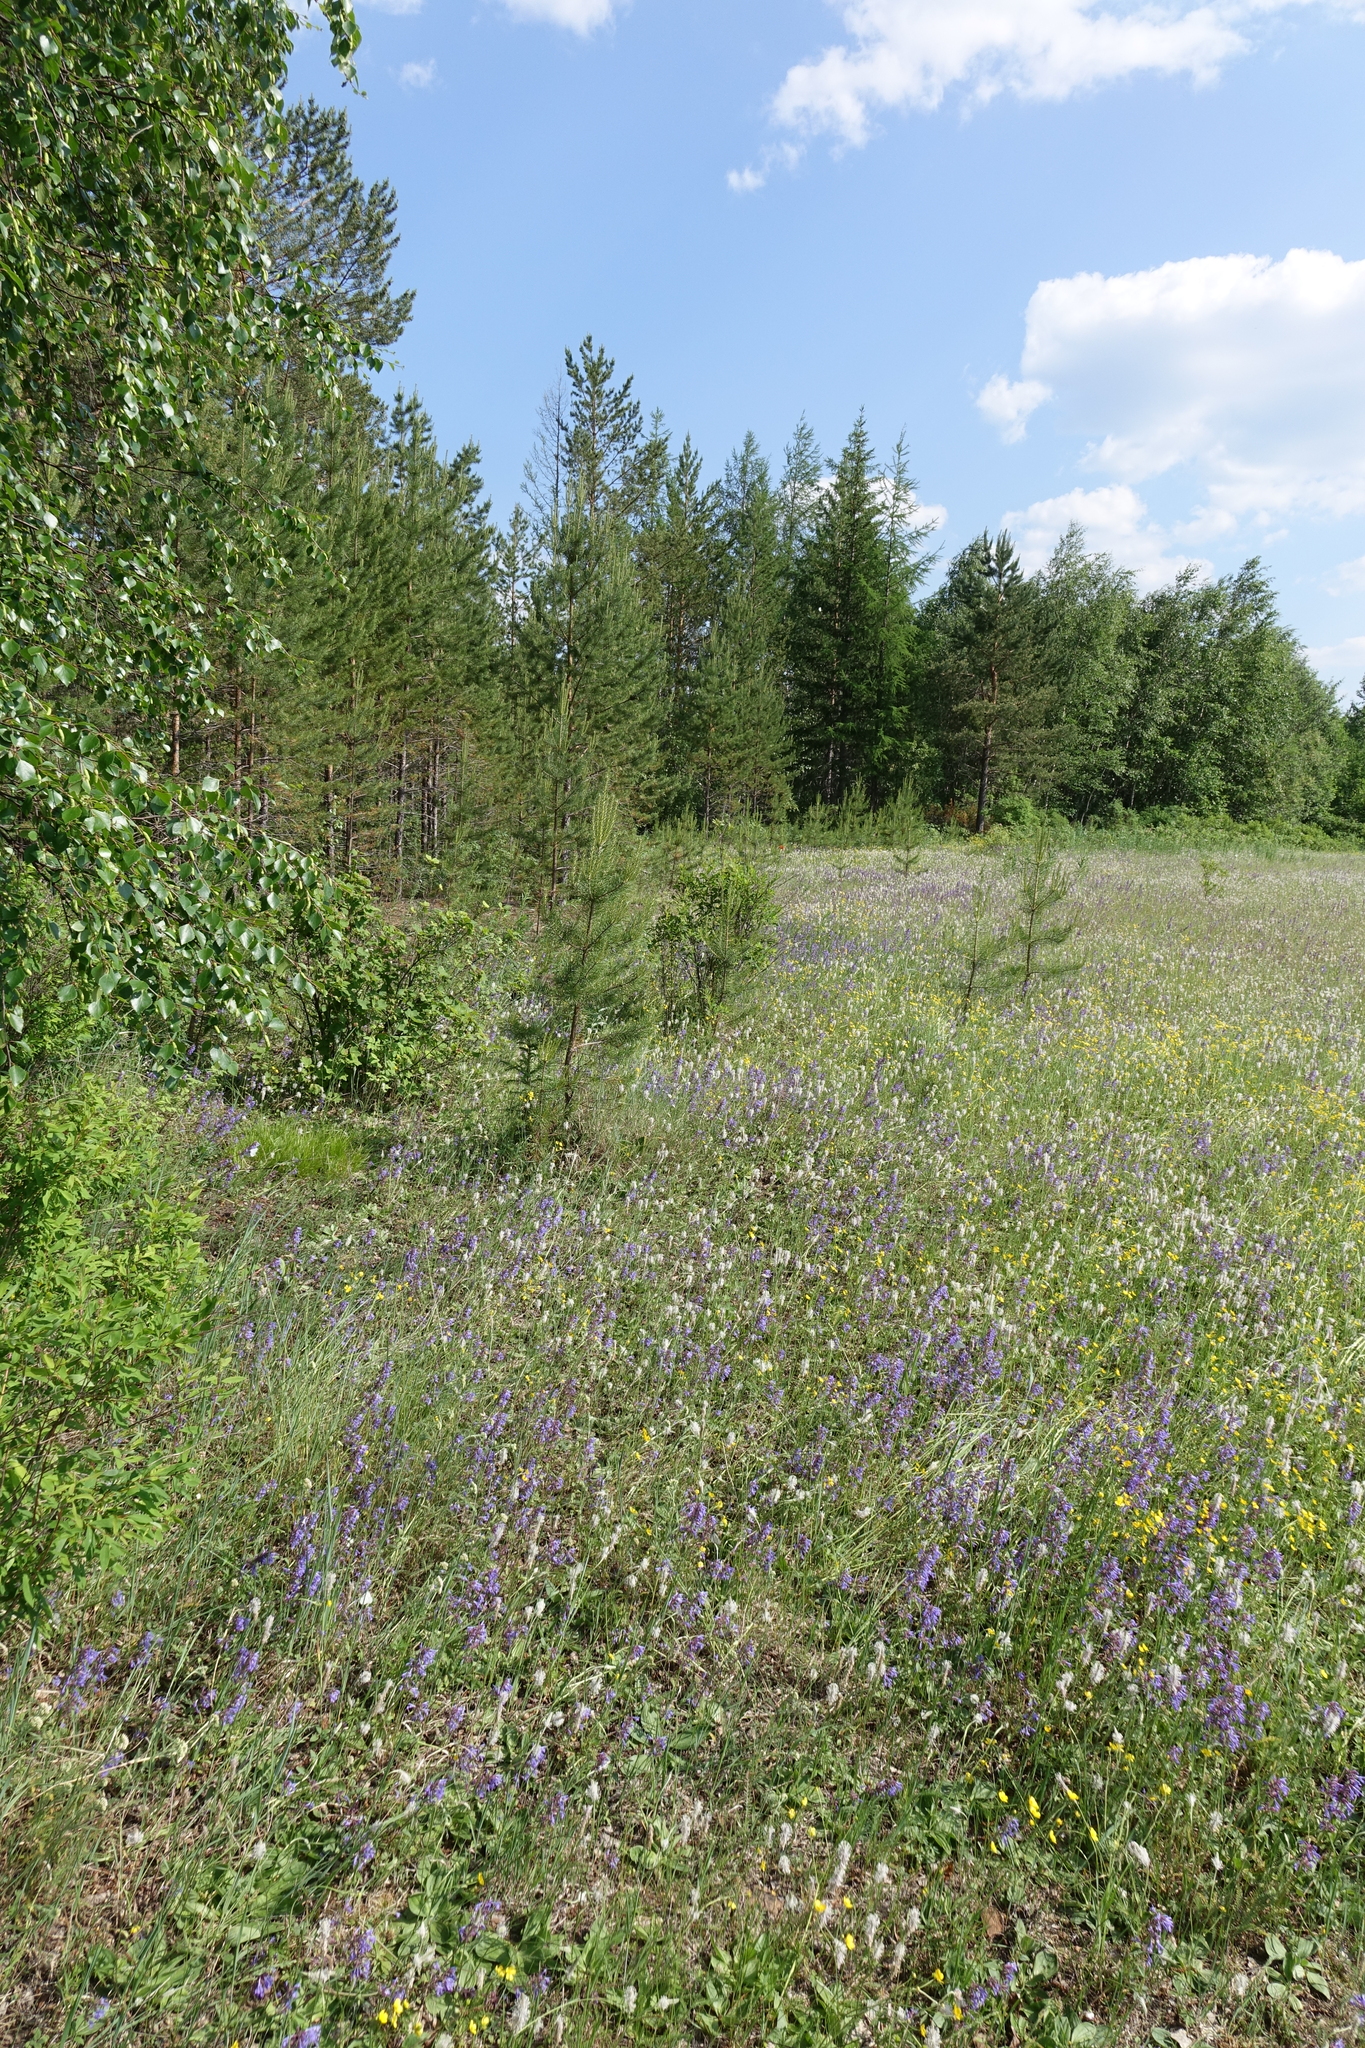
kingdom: Plantae
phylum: Tracheophyta
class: Pinopsida
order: Pinales
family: Pinaceae
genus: Pinus
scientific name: Pinus sylvestris
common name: Scots pine
